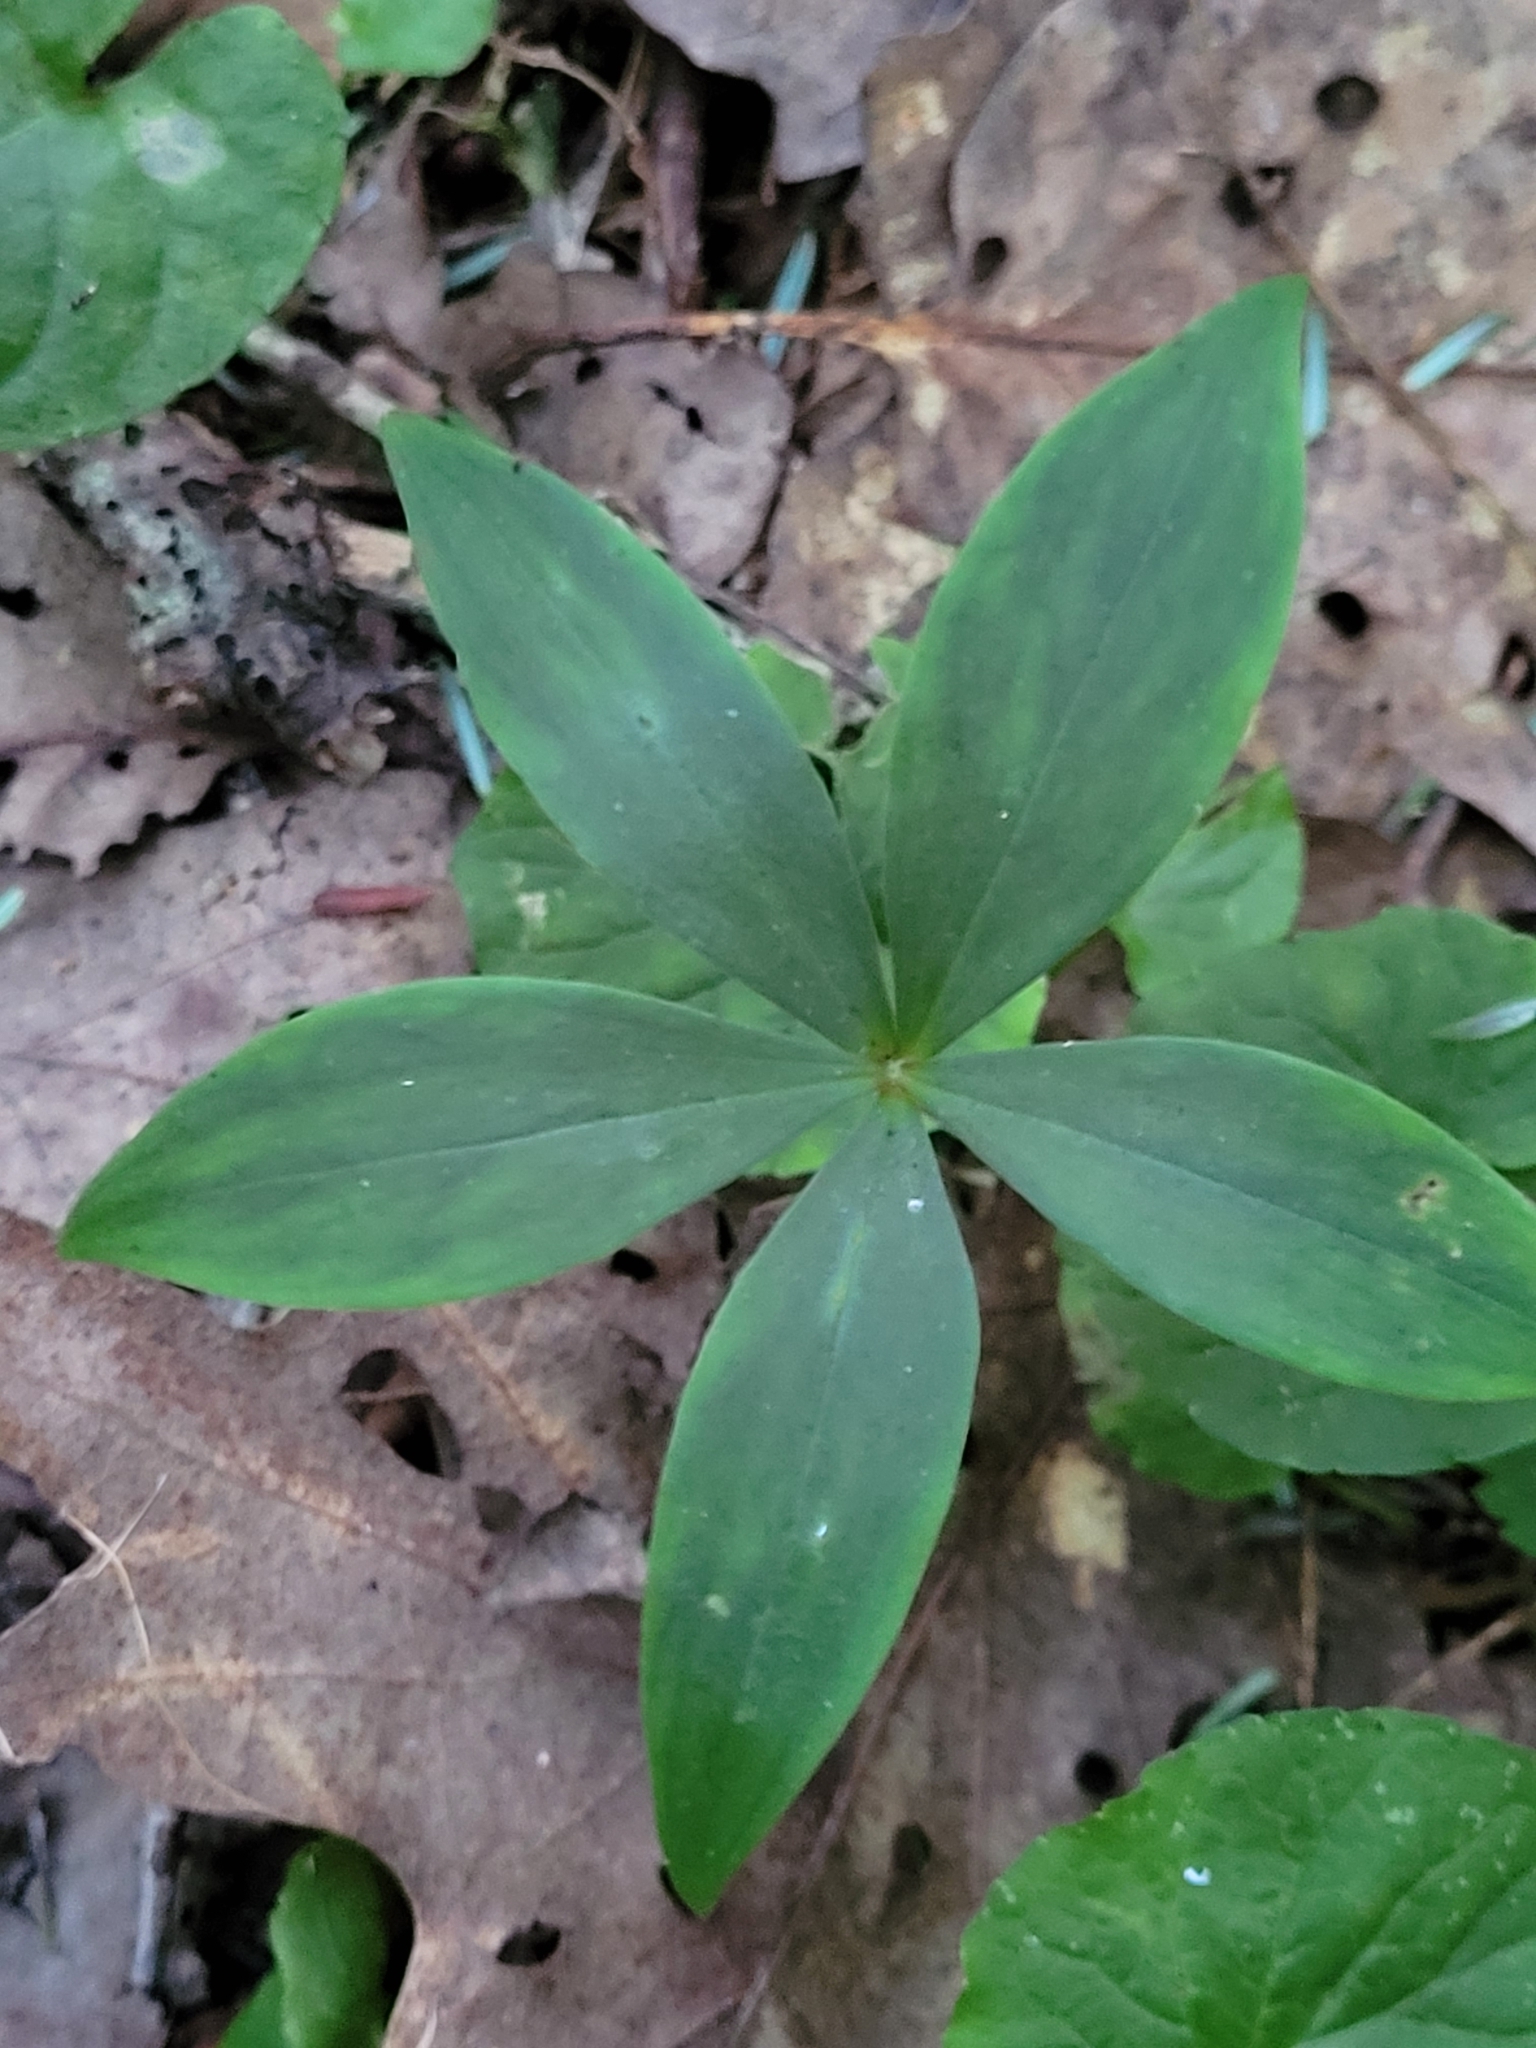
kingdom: Plantae
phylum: Tracheophyta
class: Liliopsida
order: Asparagales
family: Orchidaceae
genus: Isotria
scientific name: Isotria verticillata
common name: Large whorled pogonia
